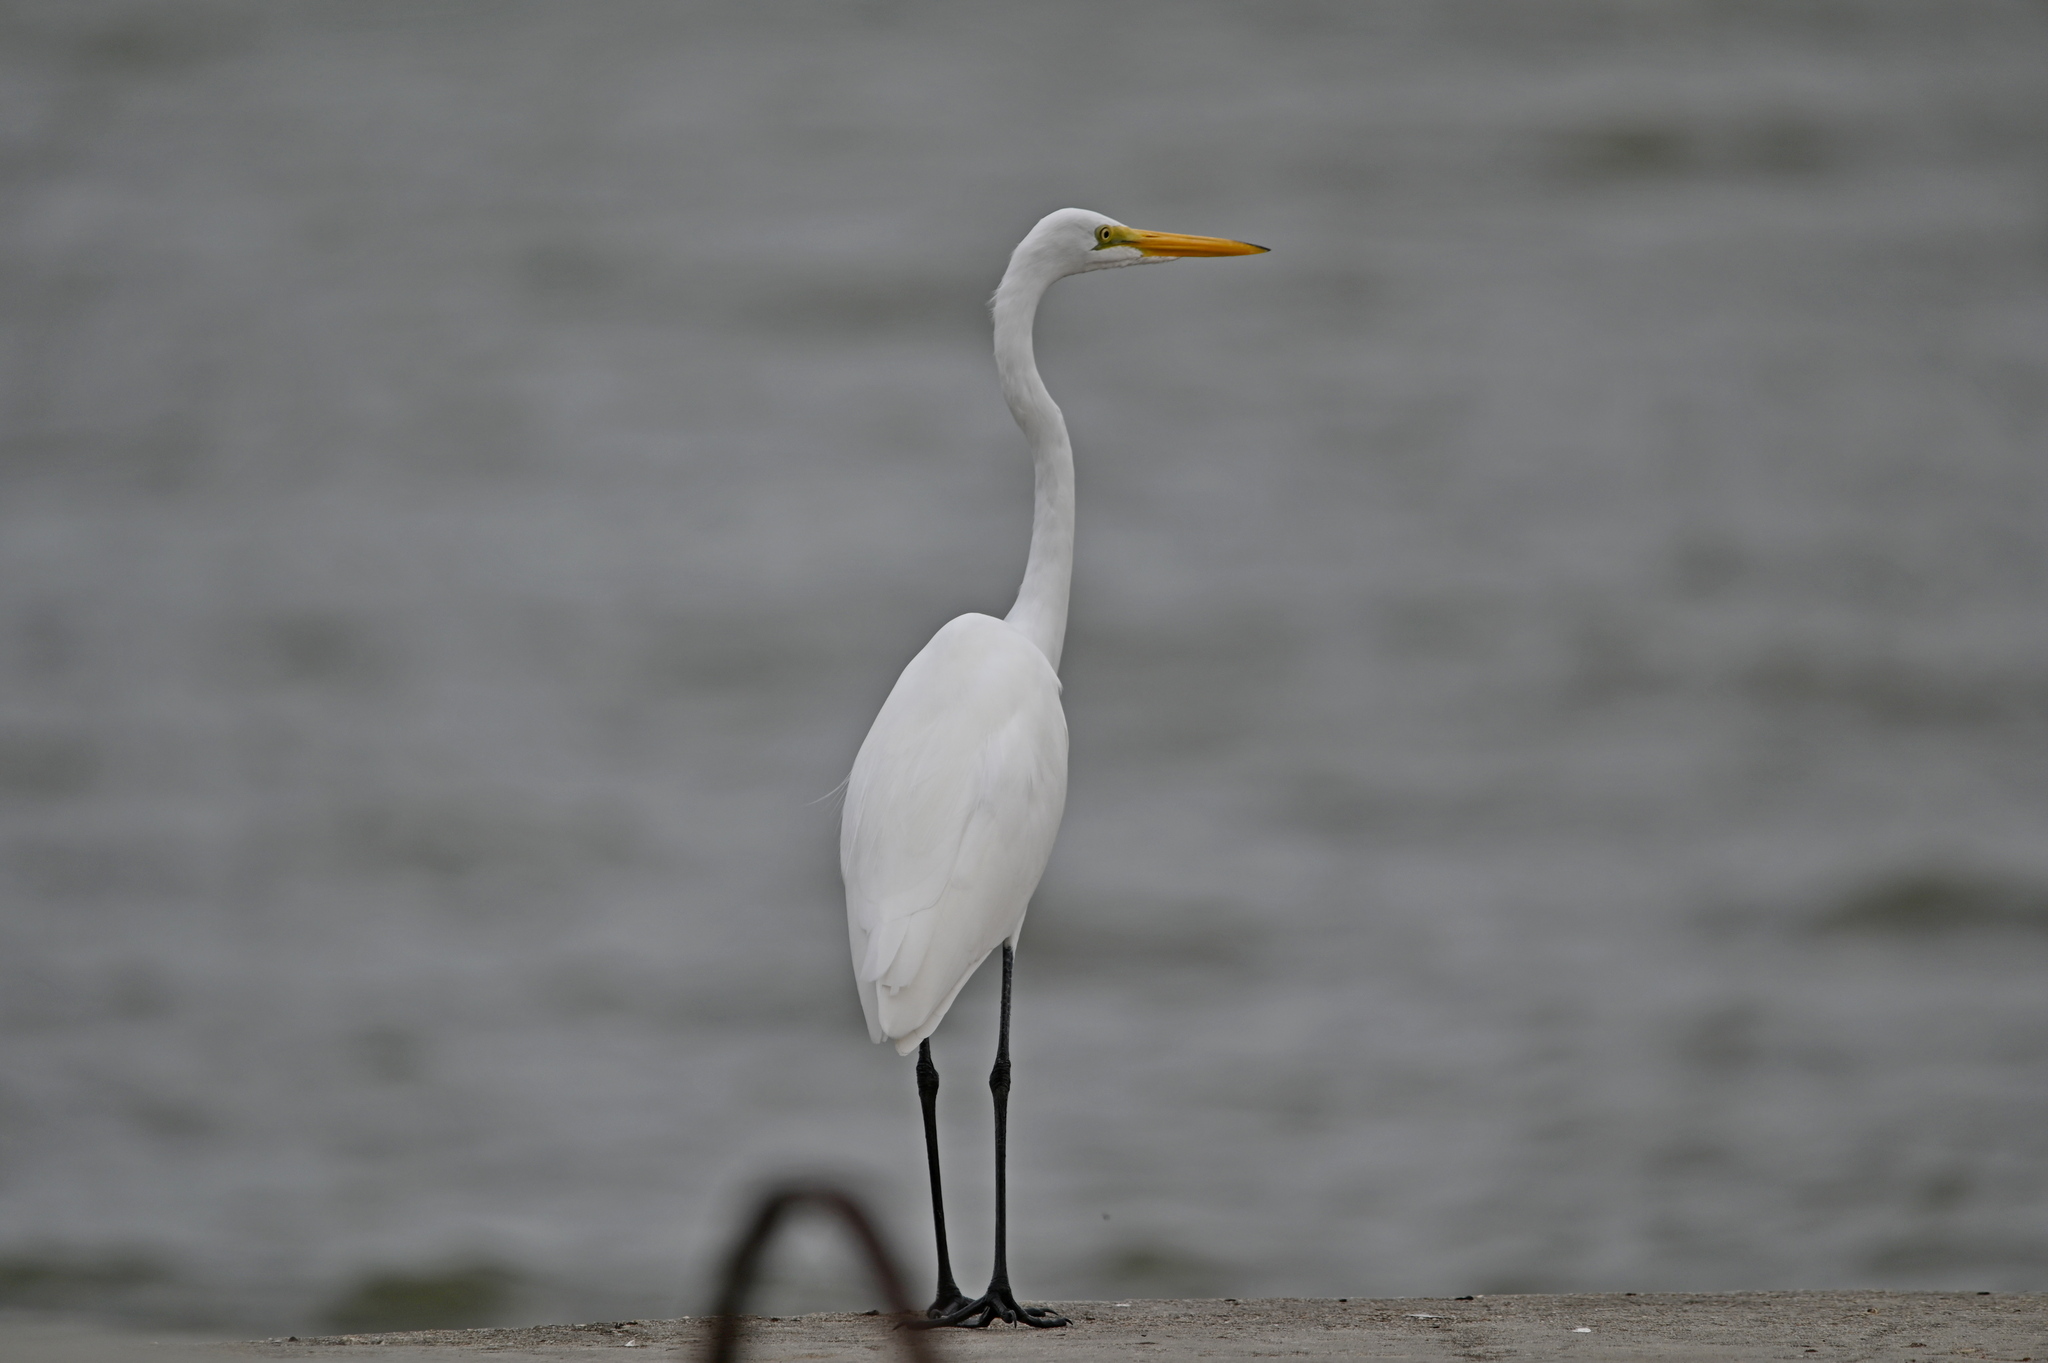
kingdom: Animalia
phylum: Chordata
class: Aves
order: Pelecaniformes
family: Ardeidae
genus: Ardea
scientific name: Ardea alba
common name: Great egret
